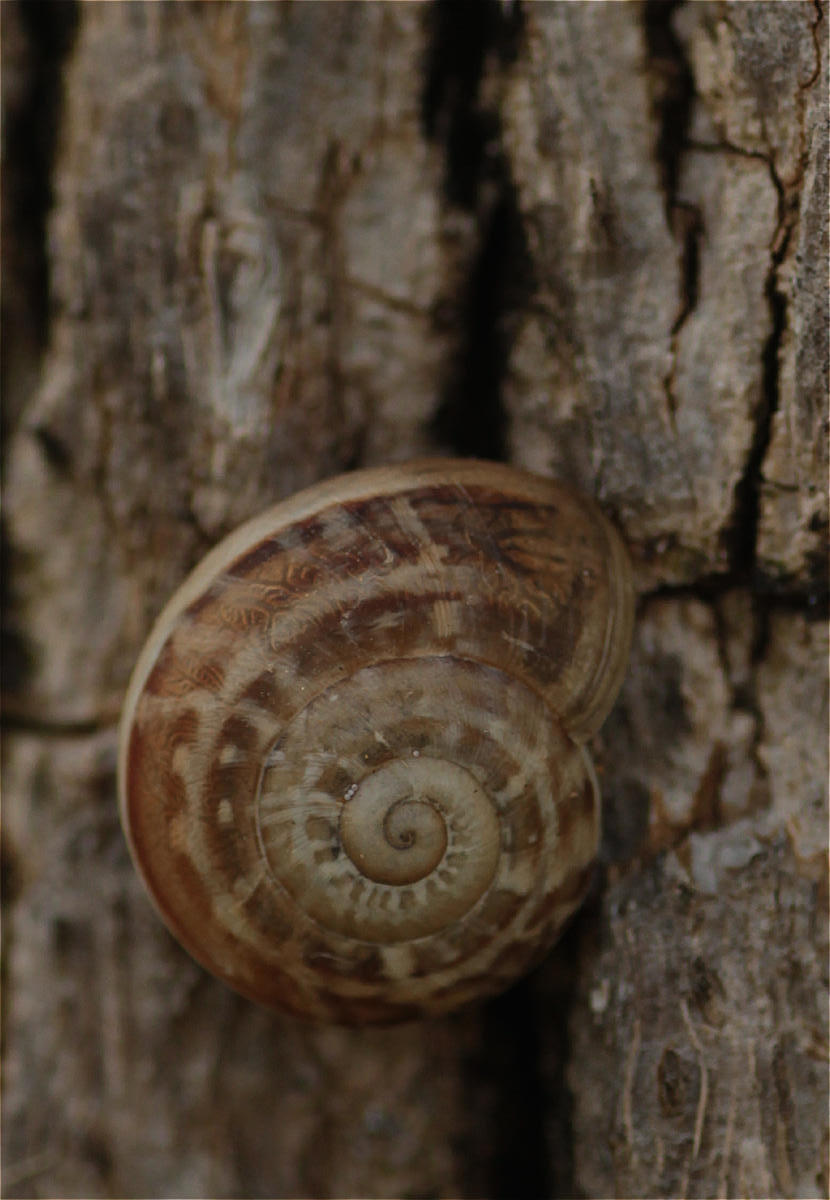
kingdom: Animalia
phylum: Mollusca
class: Gastropoda
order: Stylommatophora
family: Helicidae
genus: Eobania
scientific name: Eobania vermiculata
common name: Chocolateband snail
